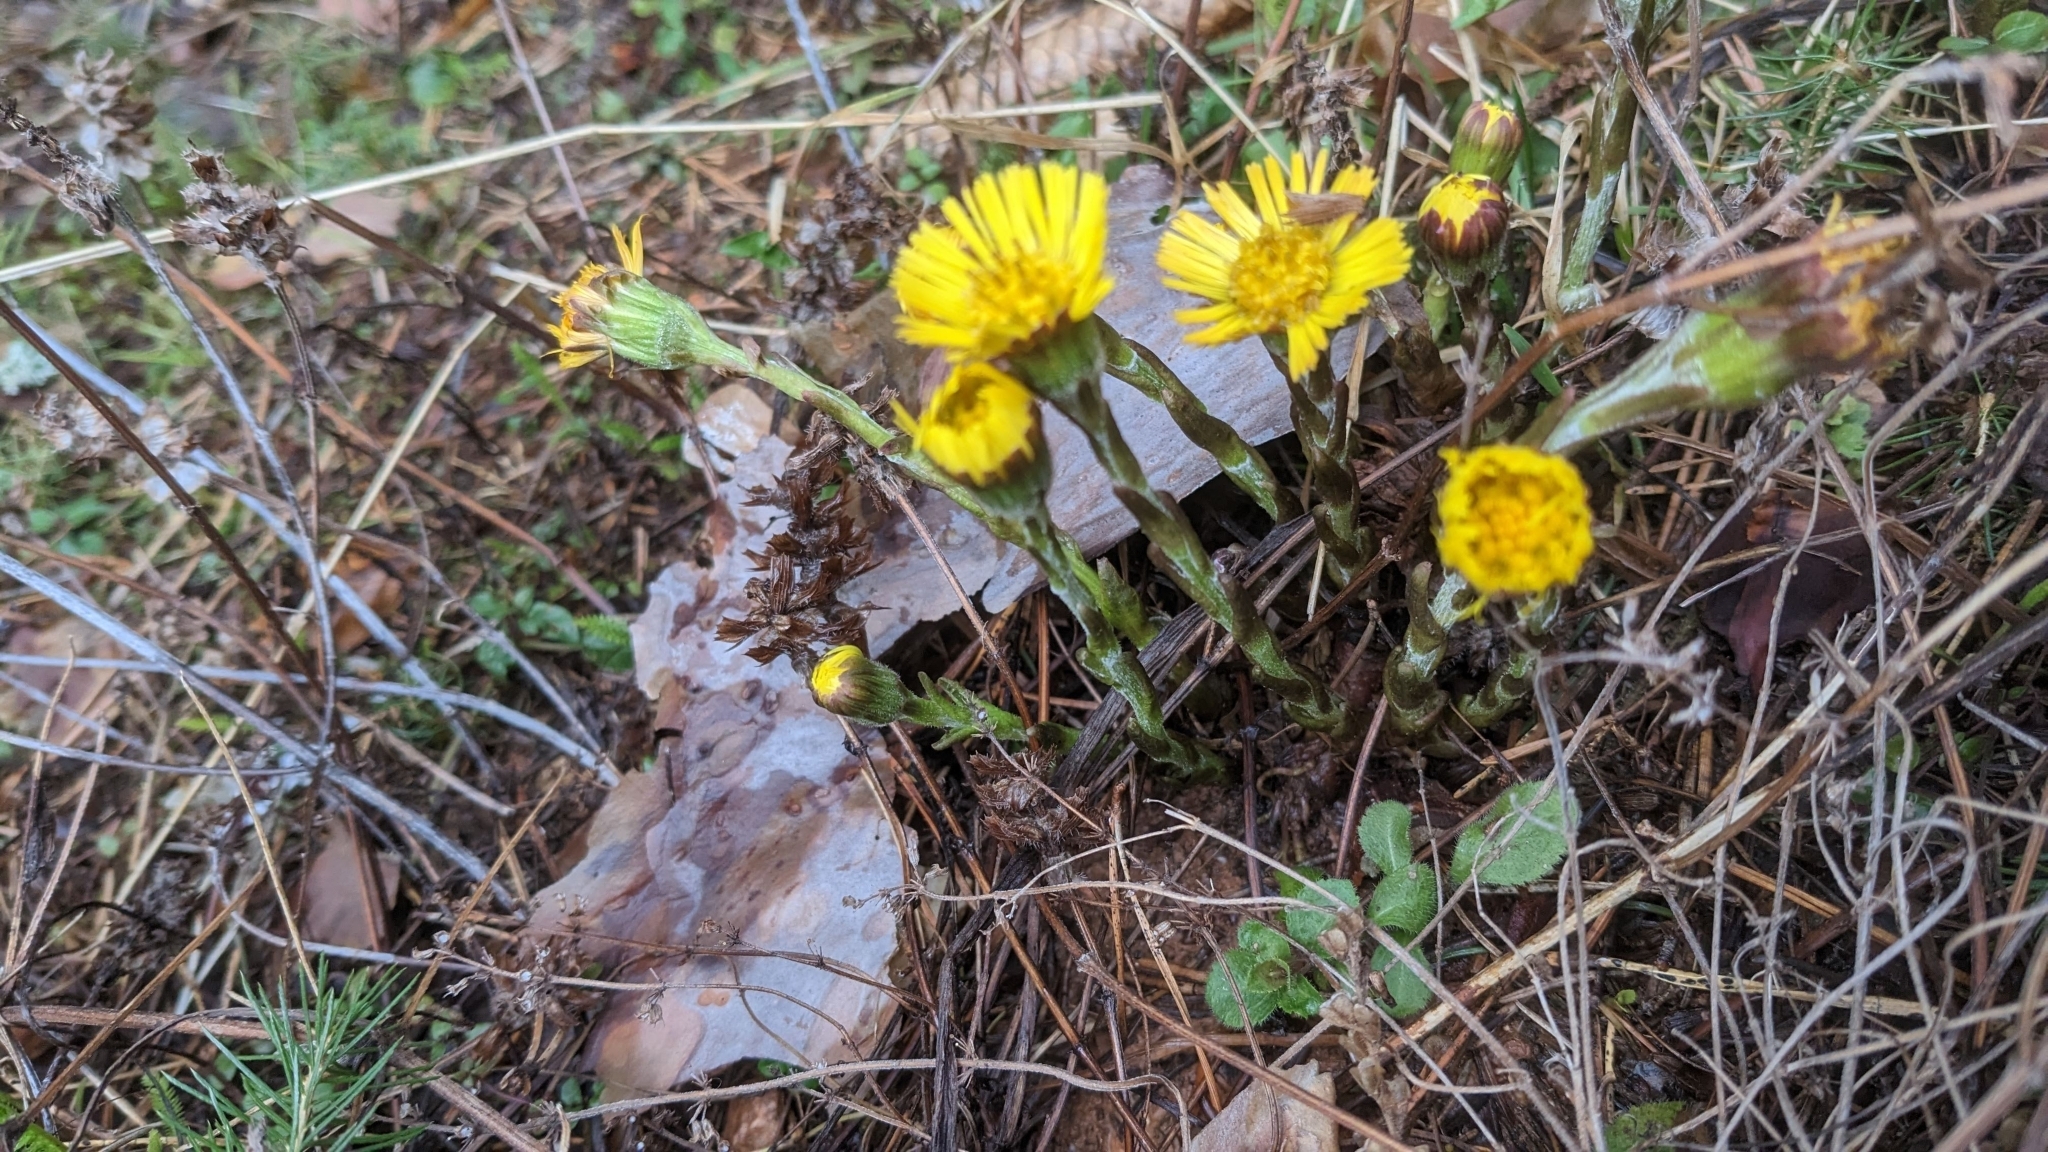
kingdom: Plantae
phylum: Tracheophyta
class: Magnoliopsida
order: Asterales
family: Asteraceae
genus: Tussilago
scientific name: Tussilago farfara
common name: Coltsfoot
